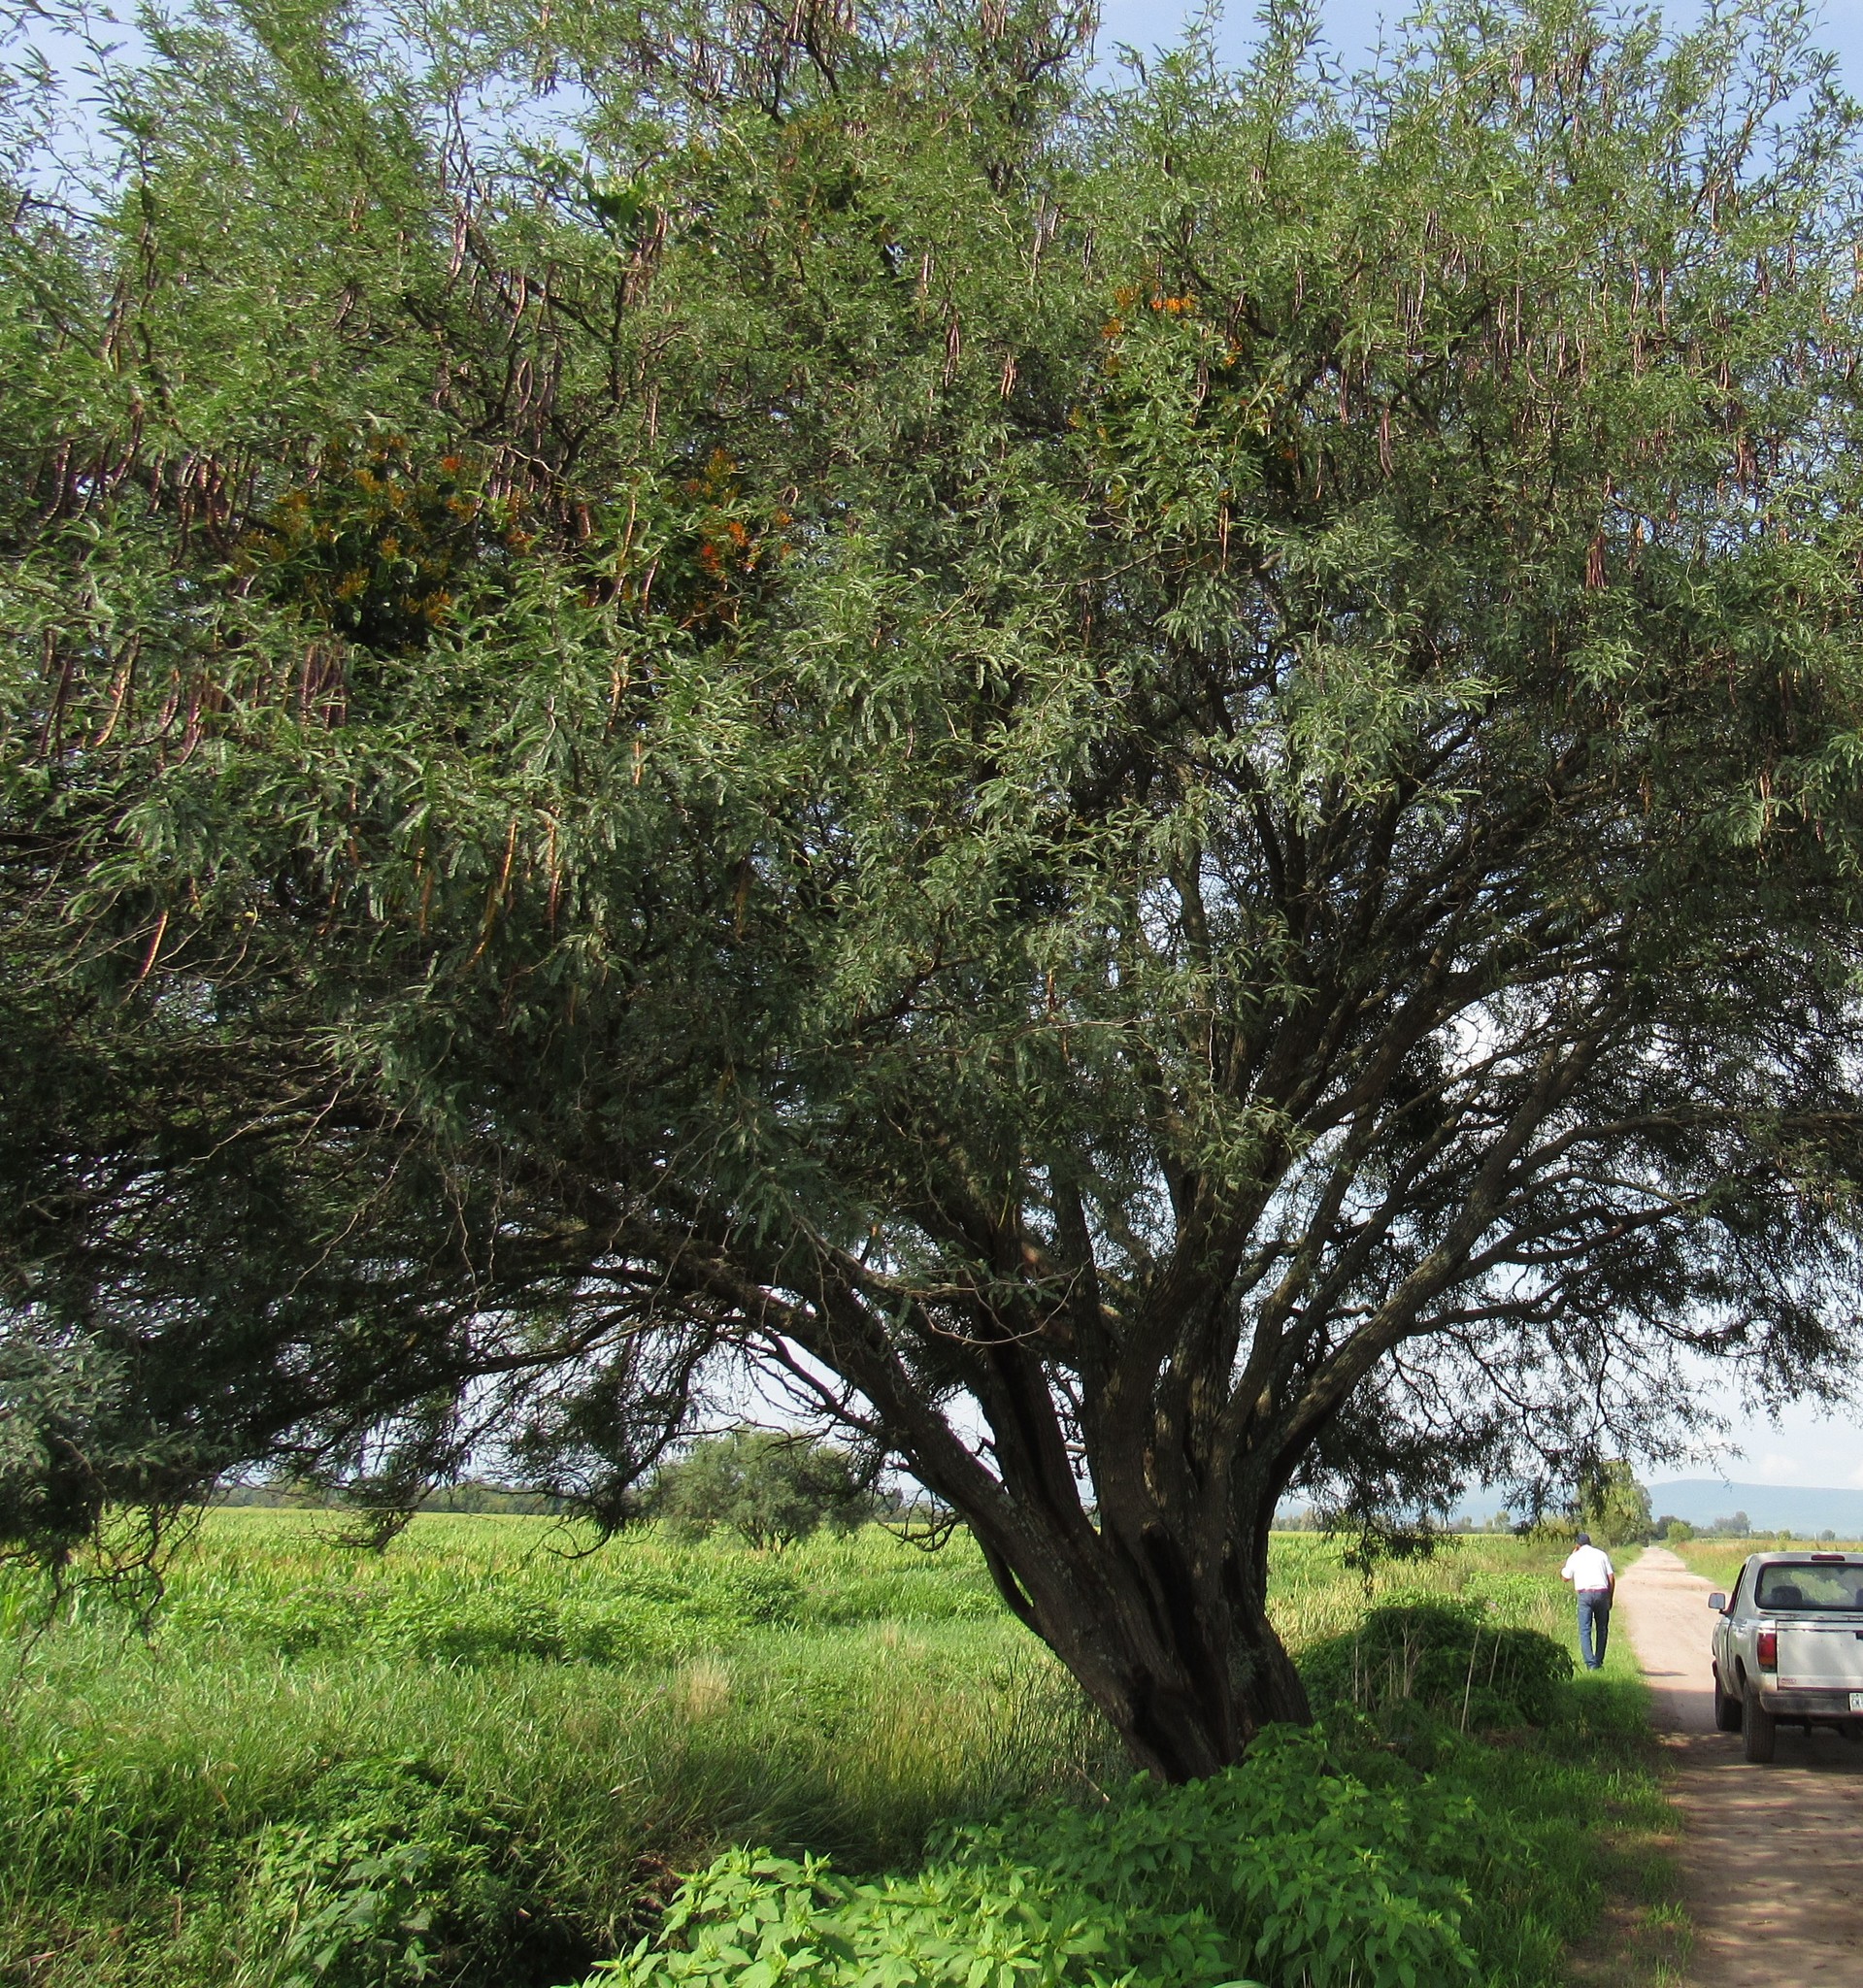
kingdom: Plantae
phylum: Tracheophyta
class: Magnoliopsida
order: Fabales
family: Fabaceae
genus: Prosopis
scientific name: Prosopis laevigata
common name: Smooth mesquite
